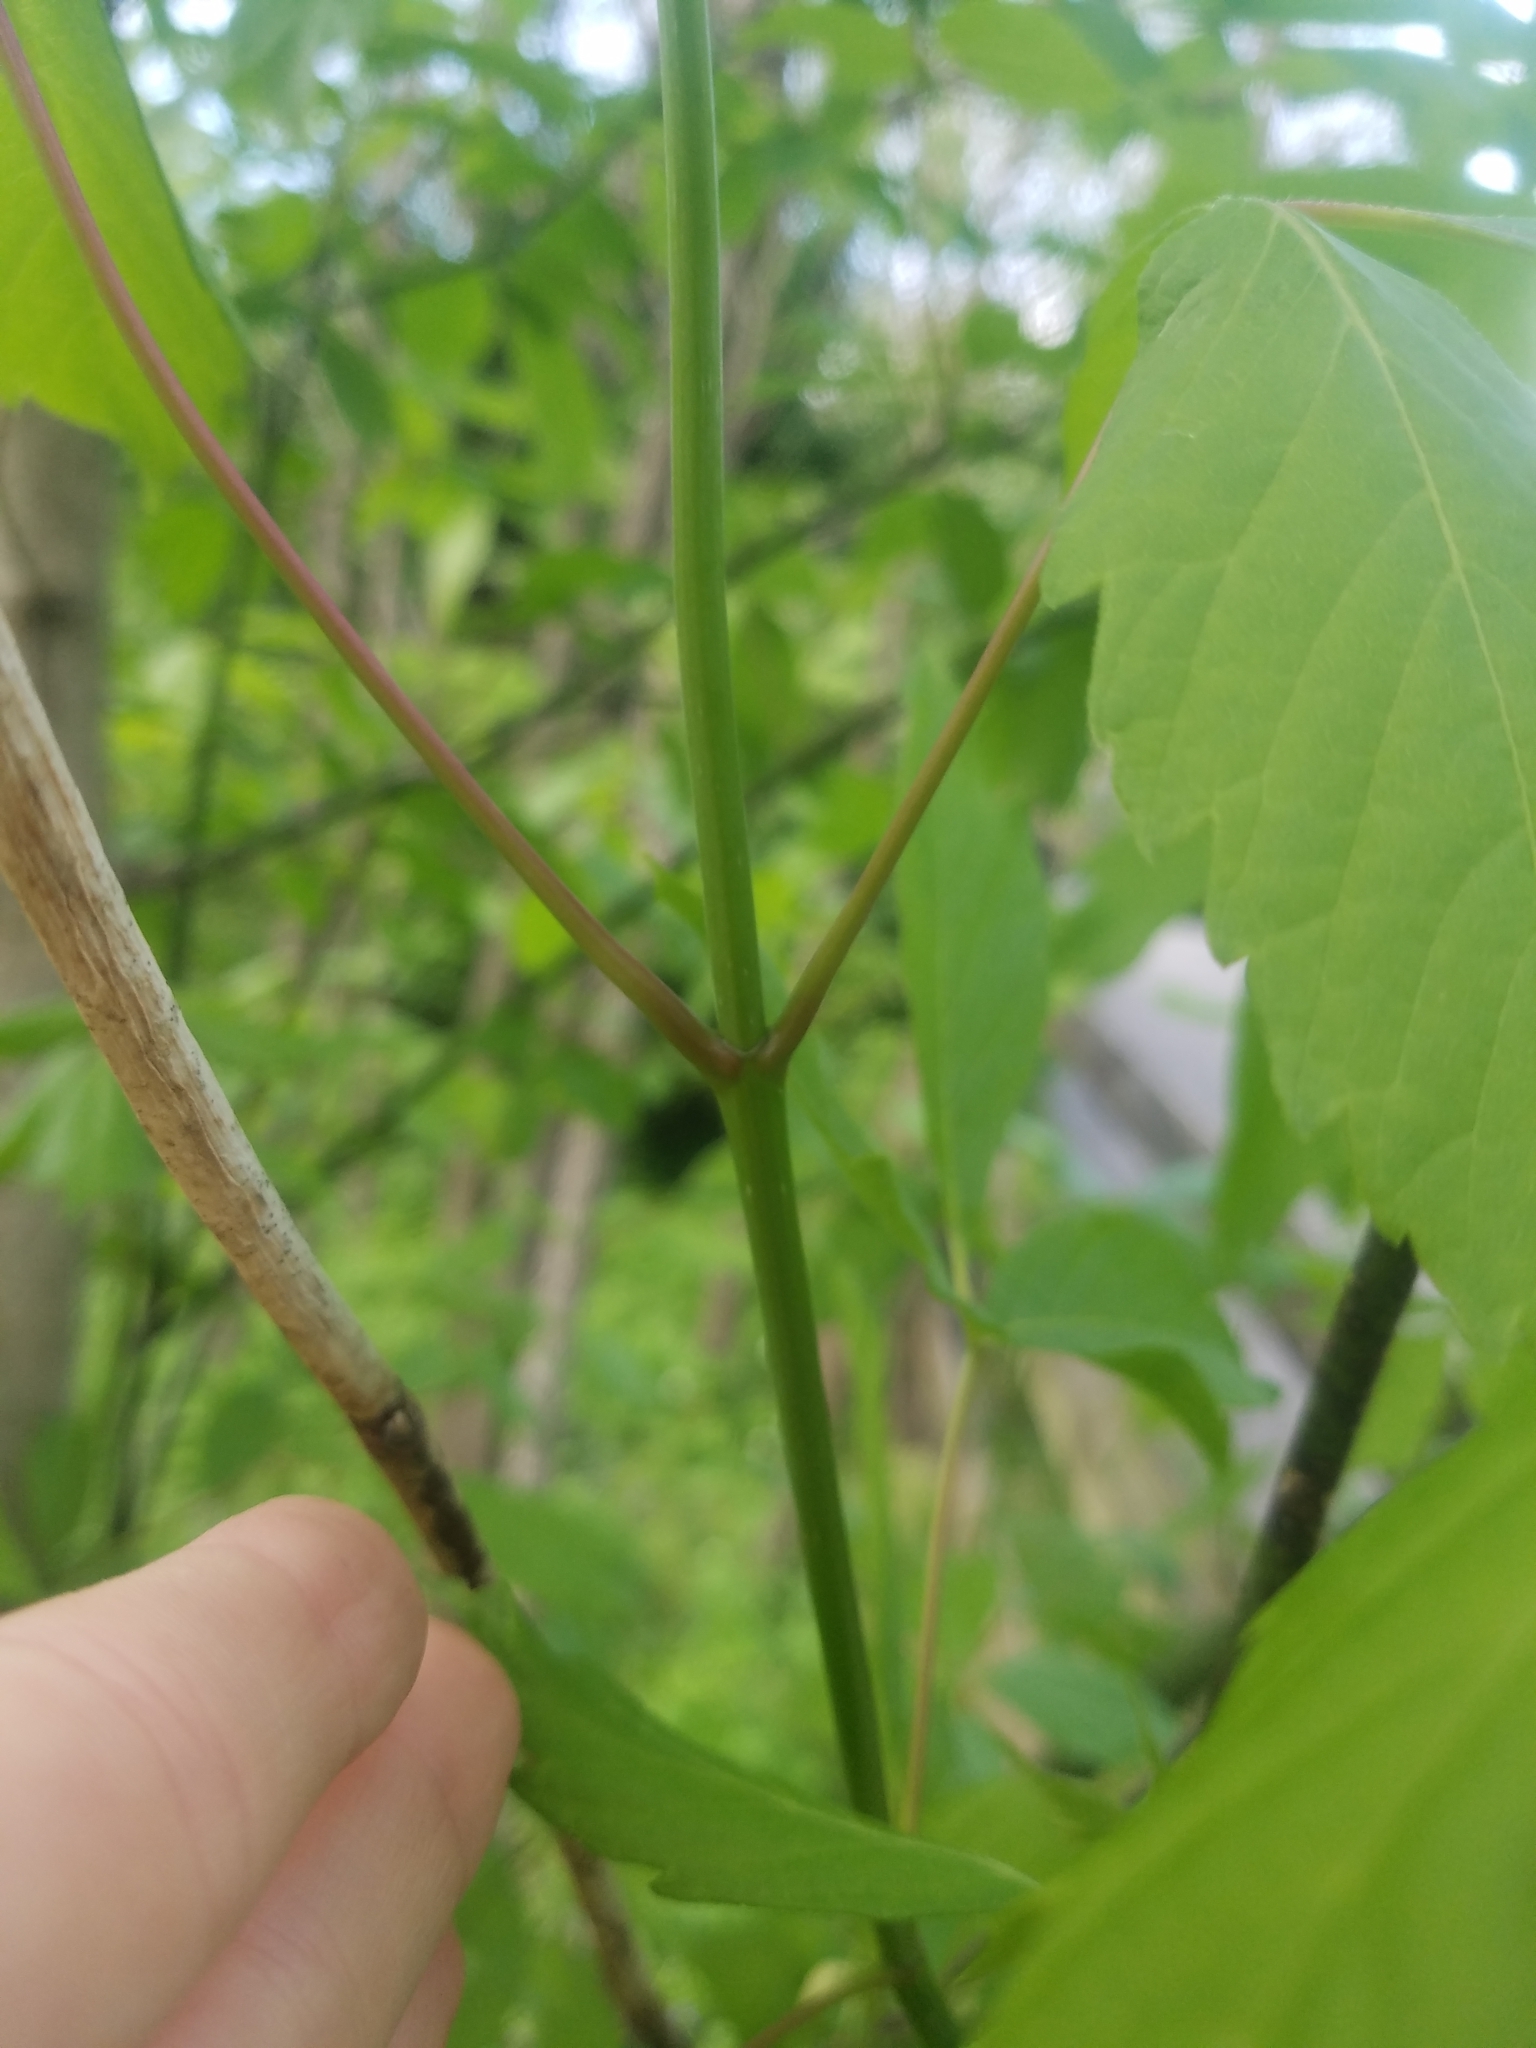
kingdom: Plantae
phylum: Tracheophyta
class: Magnoliopsida
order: Sapindales
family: Sapindaceae
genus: Acer
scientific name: Acer negundo
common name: Ashleaf maple
